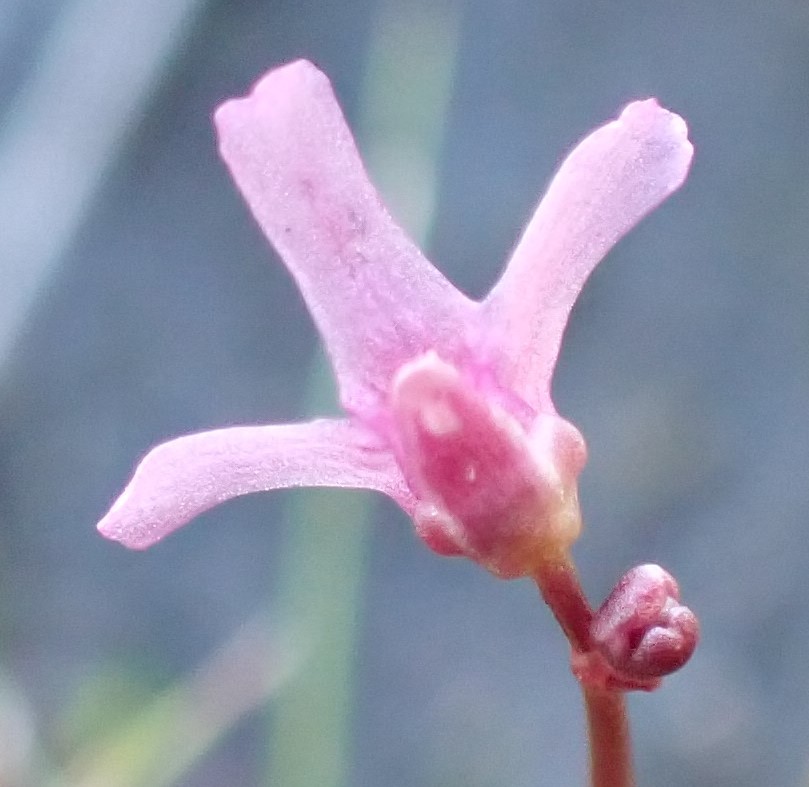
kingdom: Plantae
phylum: Tracheophyta
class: Magnoliopsida
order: Lamiales
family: Lentibulariaceae
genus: Utricularia
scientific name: Utricularia tenella
